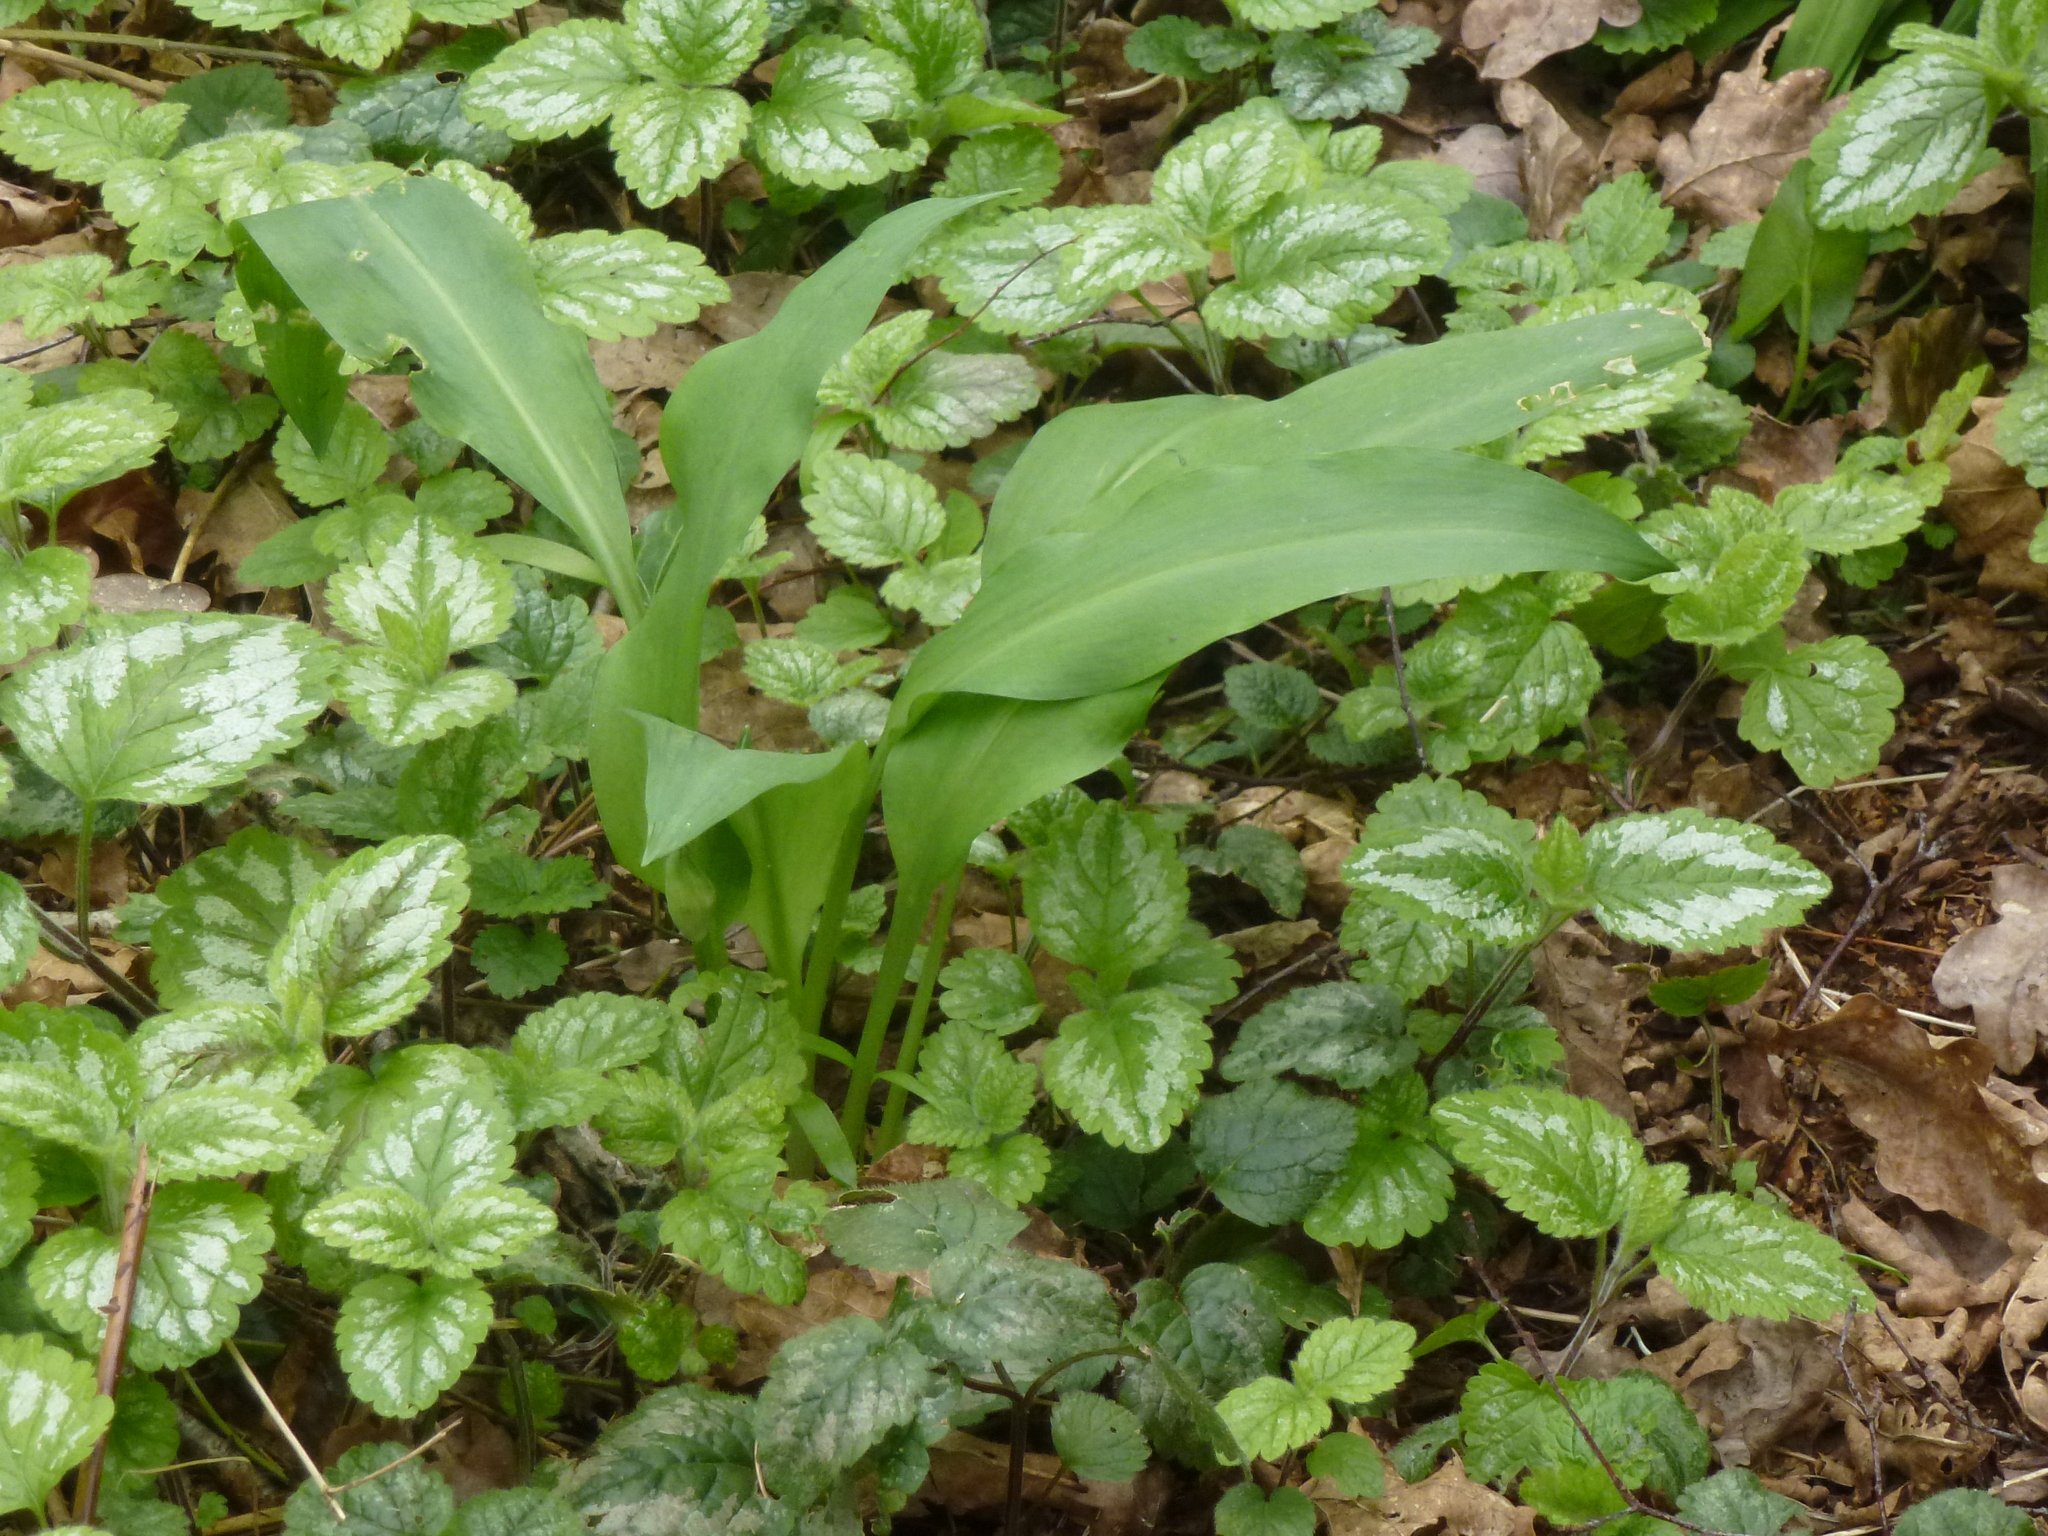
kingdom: Plantae
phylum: Tracheophyta
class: Liliopsida
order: Asparagales
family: Amaryllidaceae
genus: Allium
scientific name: Allium ursinum
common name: Ramsons
